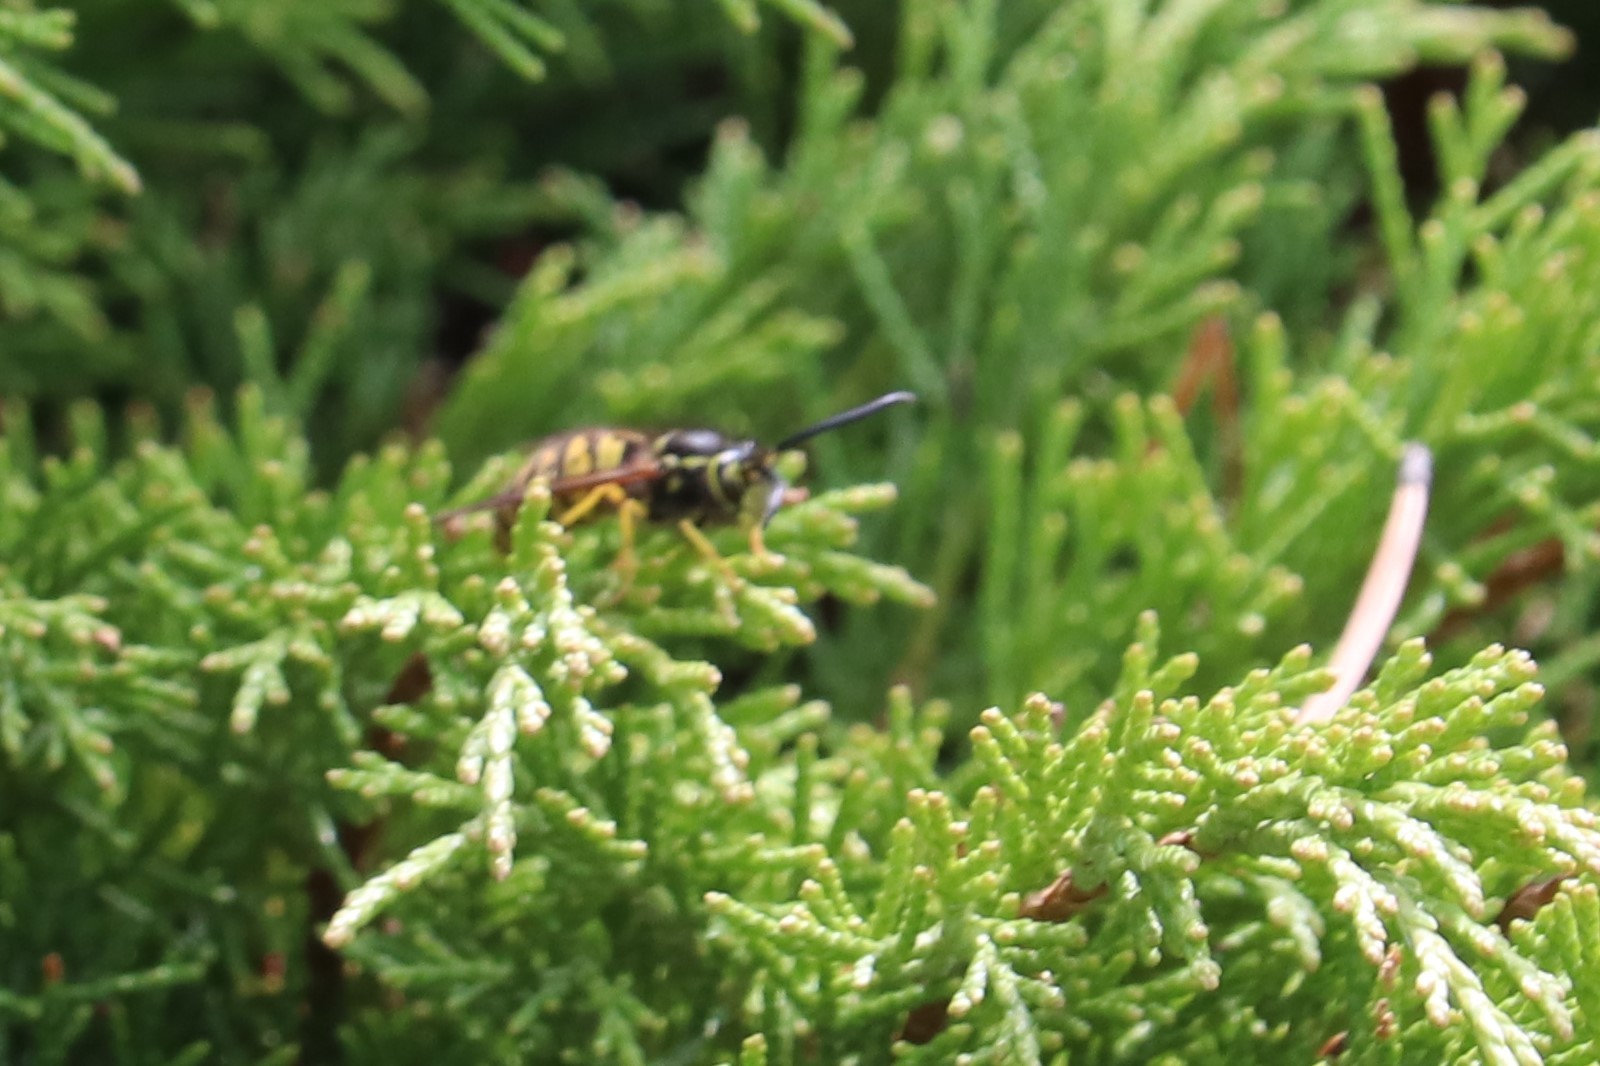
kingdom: Animalia
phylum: Arthropoda
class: Insecta
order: Hymenoptera
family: Vespidae
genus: Vespula
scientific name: Vespula
